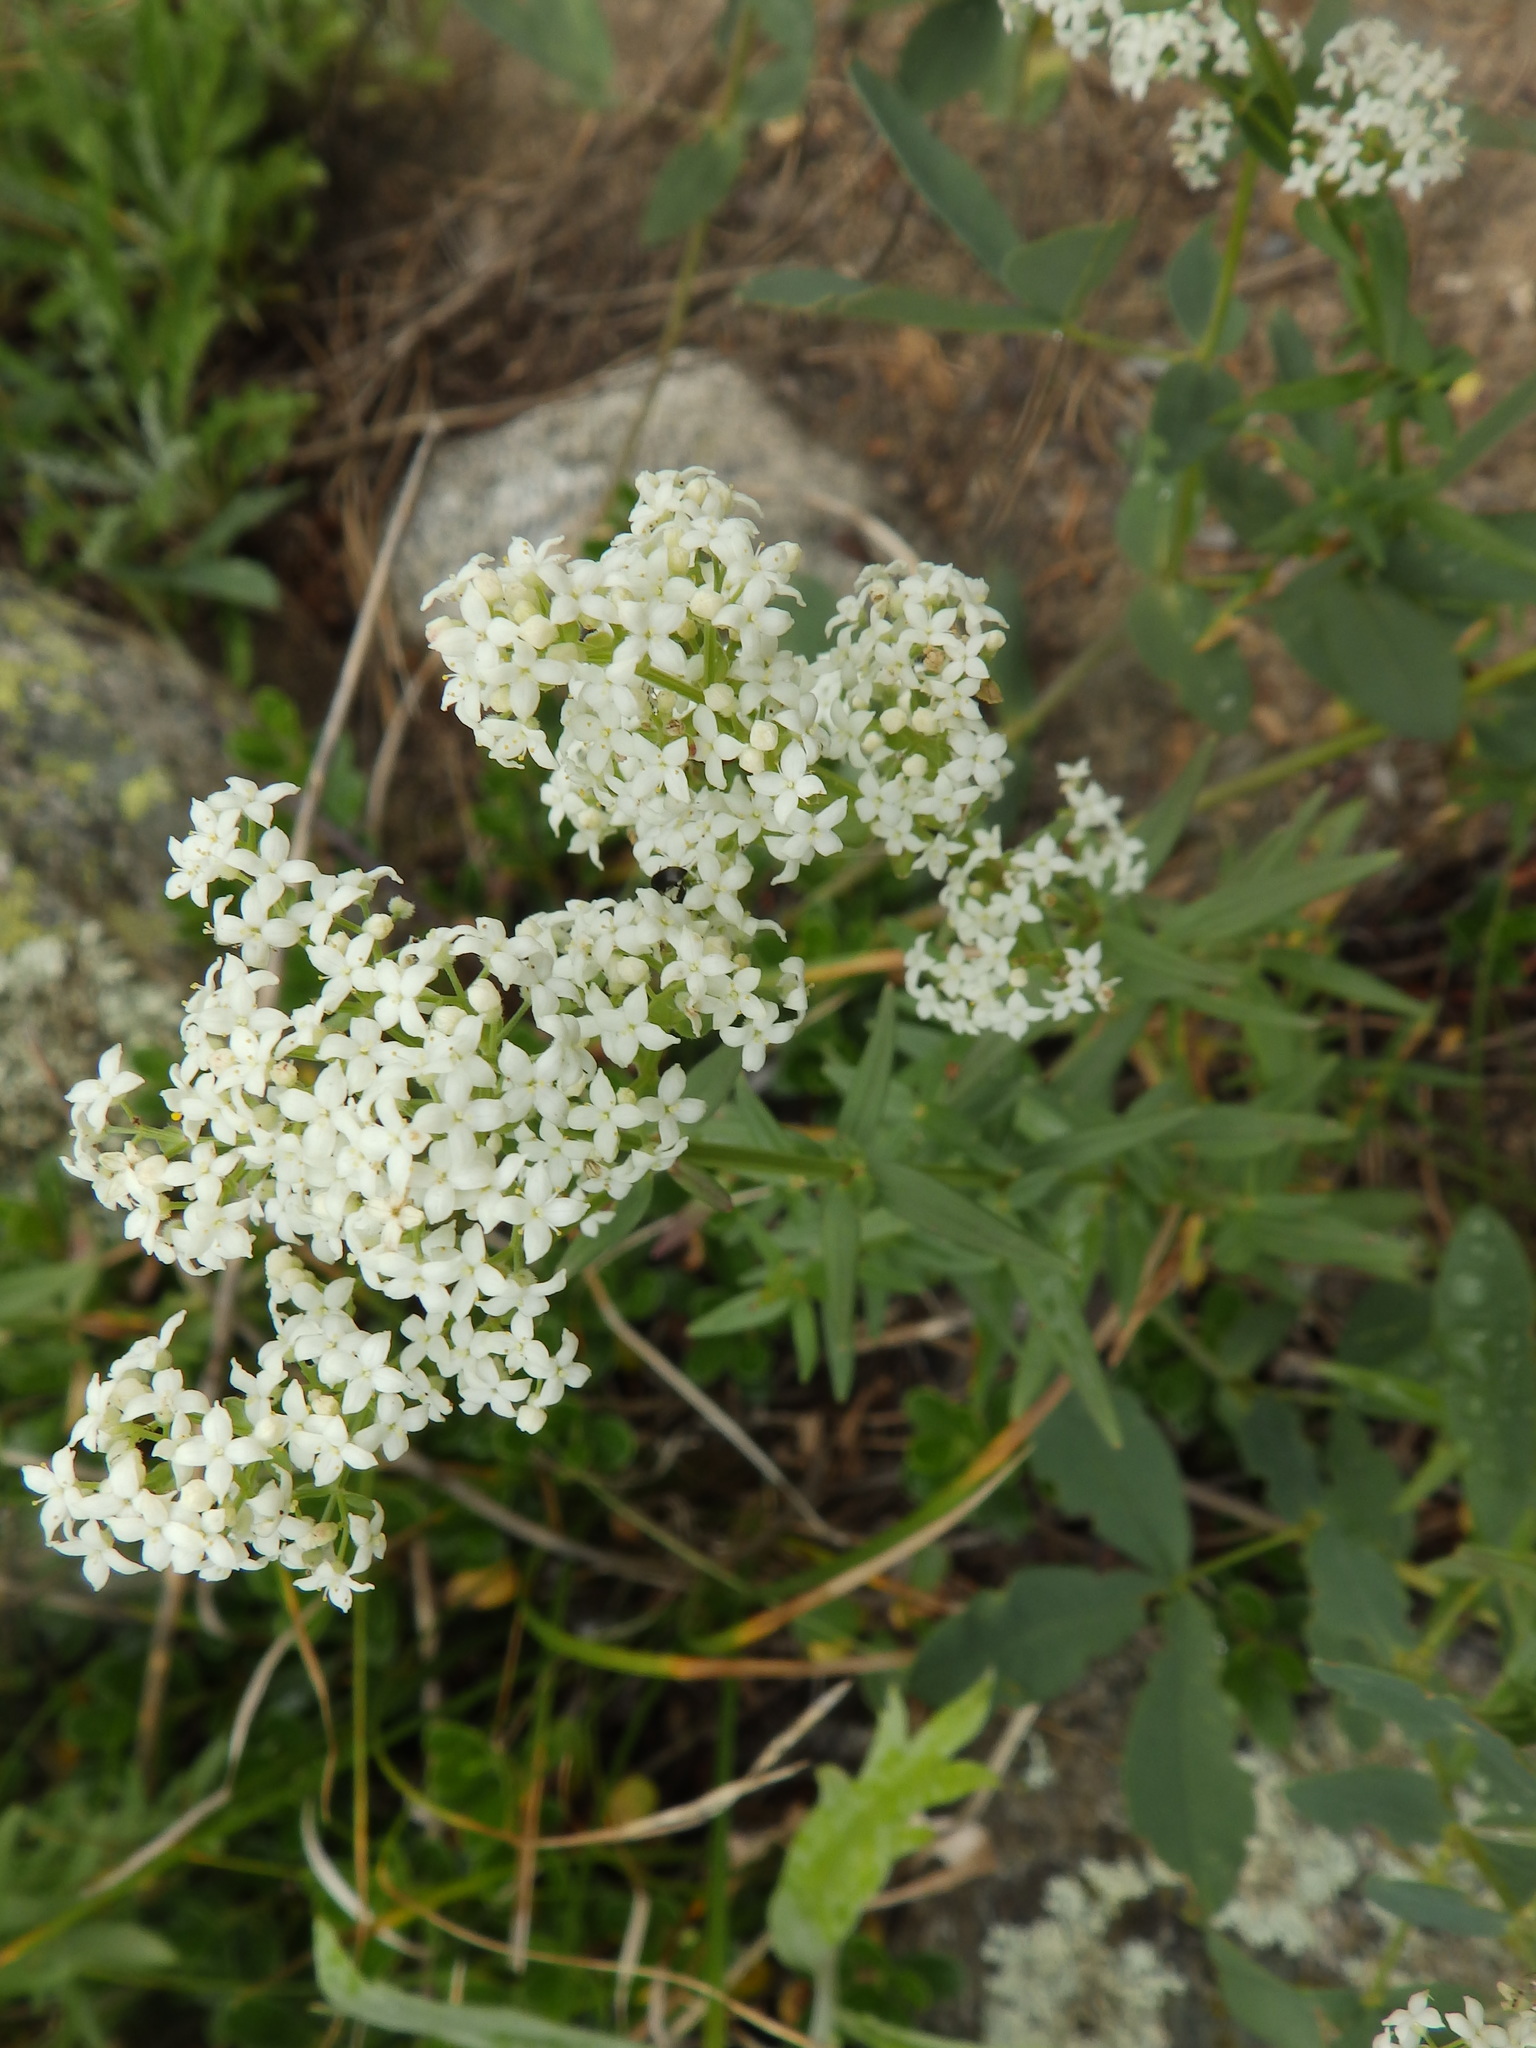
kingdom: Plantae
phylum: Tracheophyta
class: Magnoliopsida
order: Gentianales
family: Rubiaceae
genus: Galium
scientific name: Galium boreale
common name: Northern bedstraw
